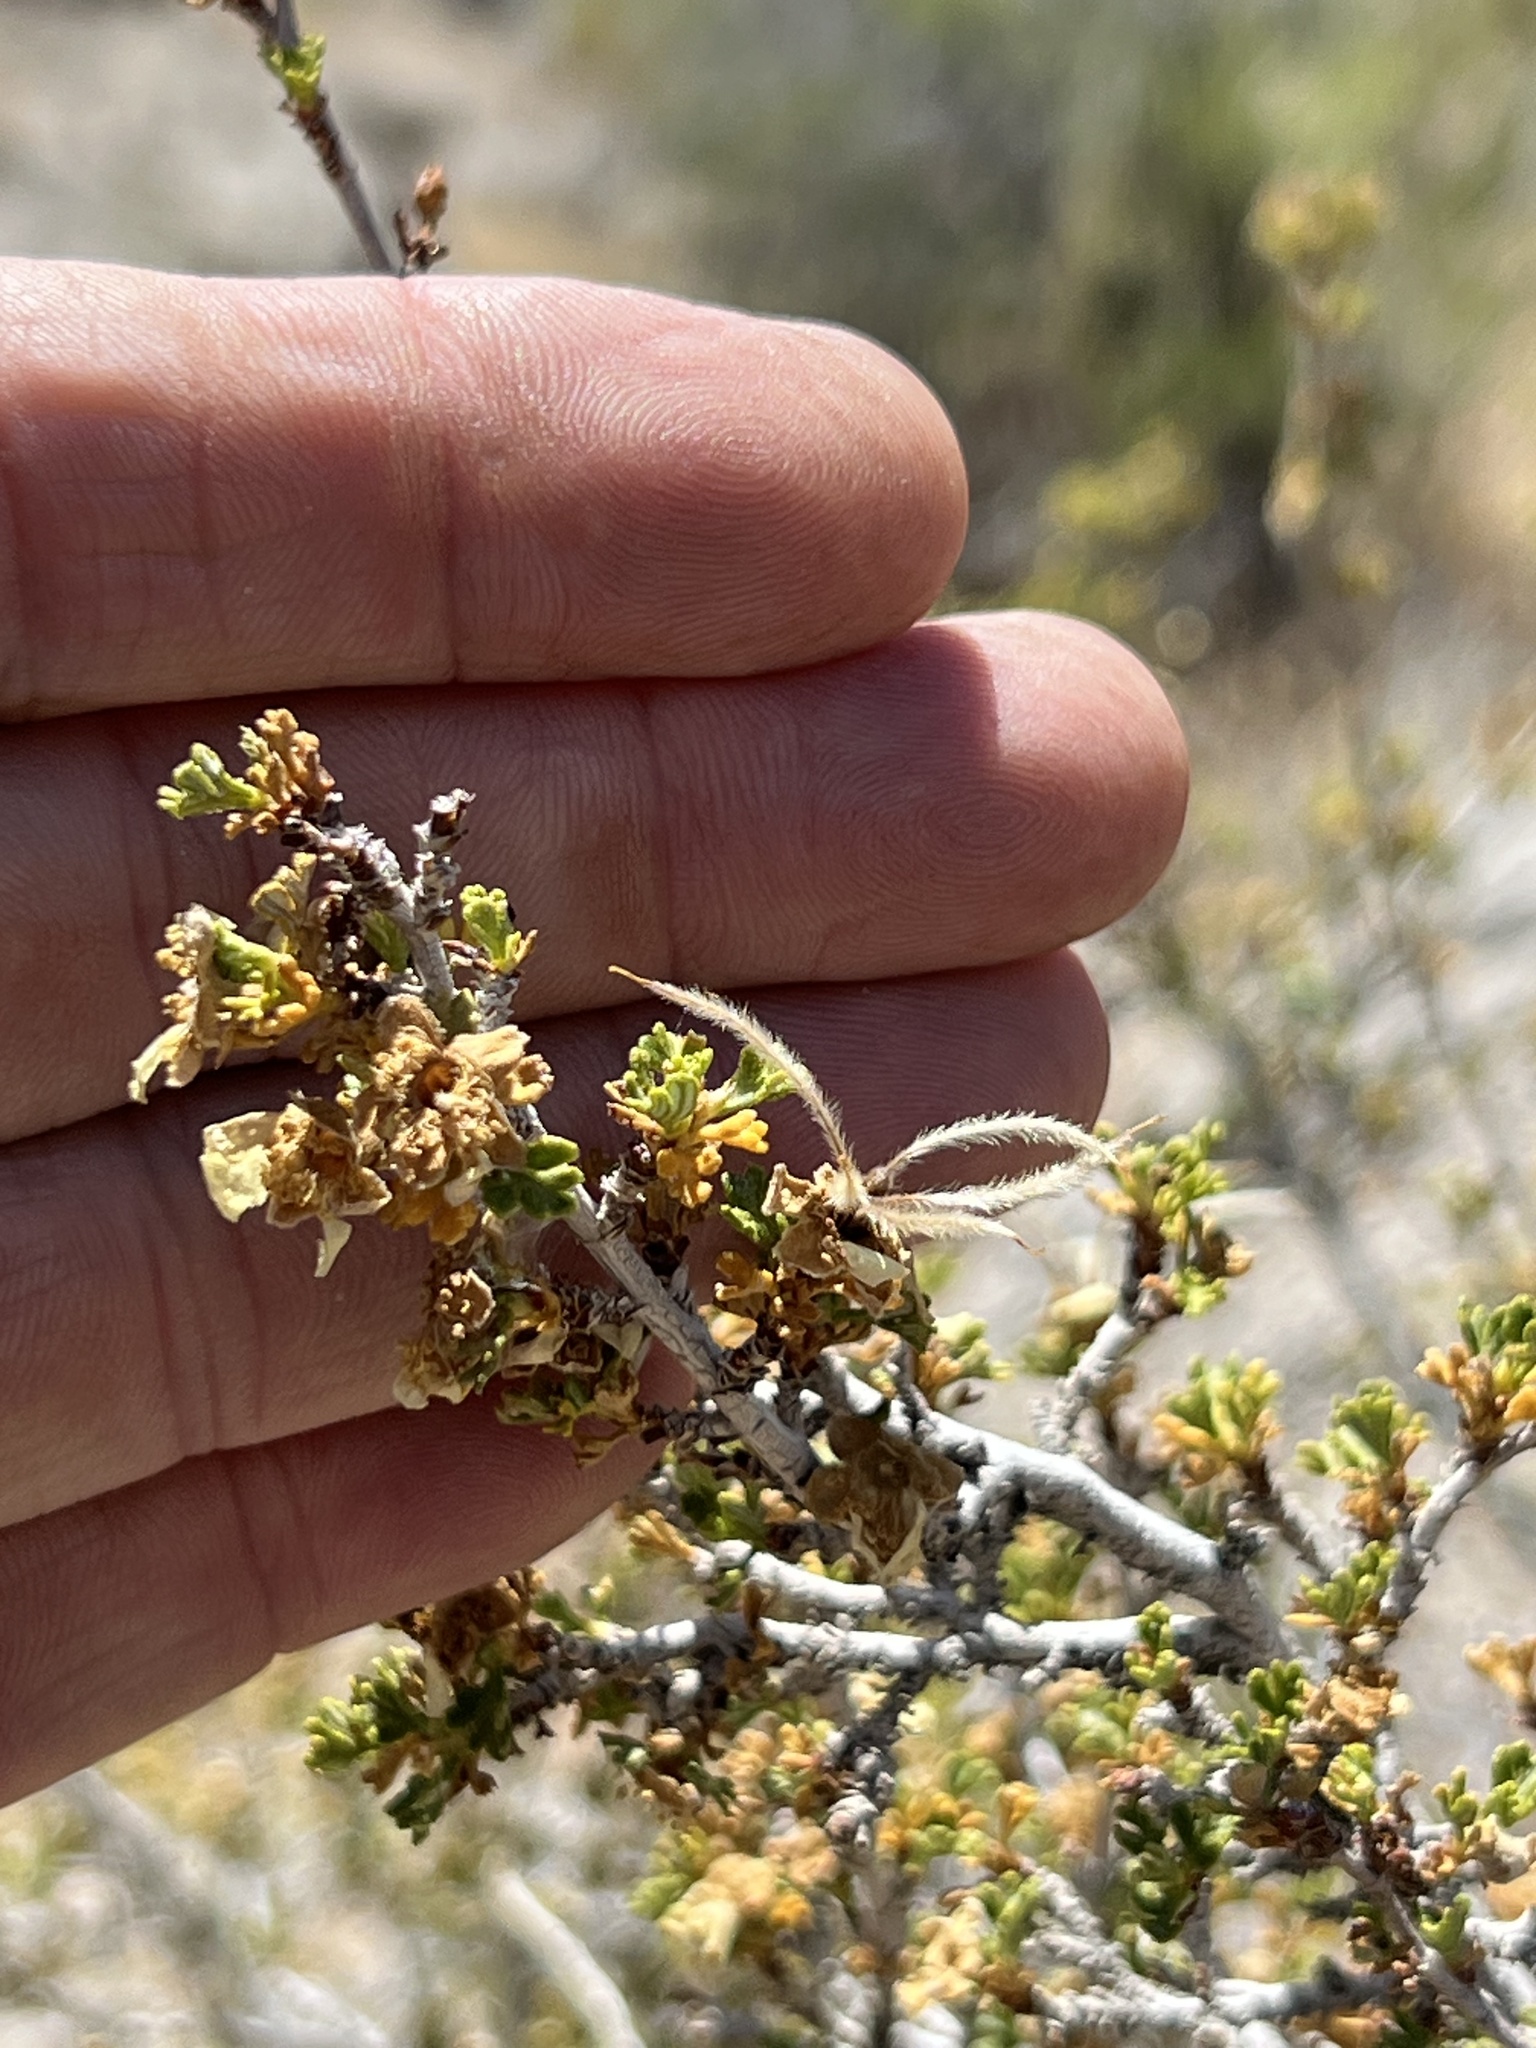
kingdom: Plantae
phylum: Tracheophyta
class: Magnoliopsida
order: Rosales
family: Rosaceae
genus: Purshia
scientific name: Purshia stansburiana
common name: Stansbury's cliffrose
